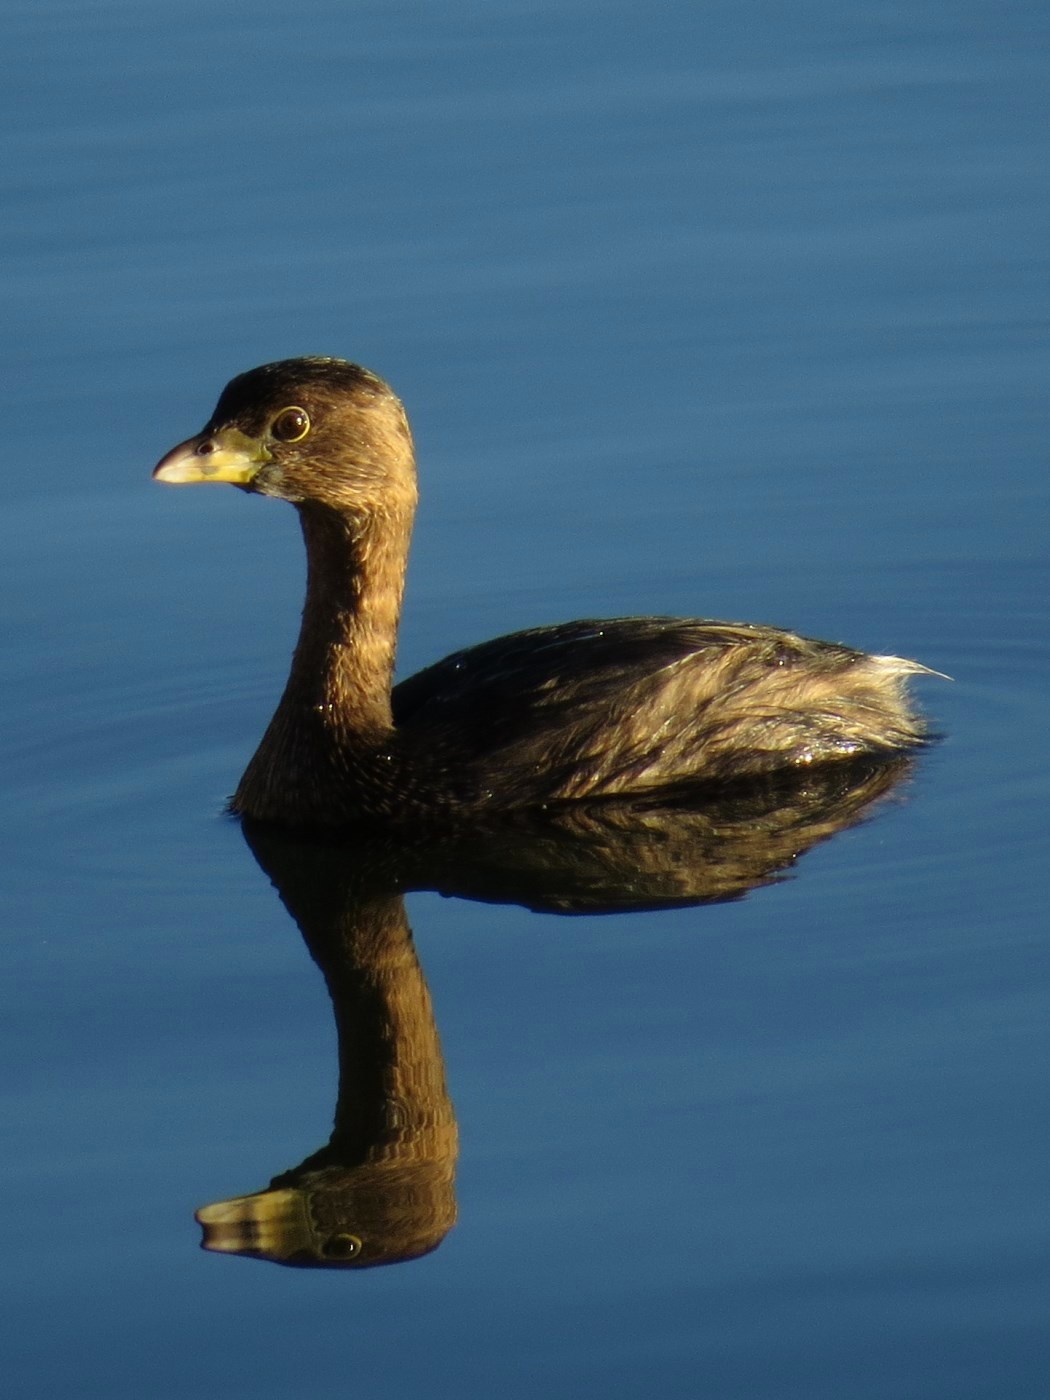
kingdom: Animalia
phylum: Chordata
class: Aves
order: Podicipediformes
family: Podicipedidae
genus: Podilymbus
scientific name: Podilymbus podiceps
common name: Pied-billed grebe
